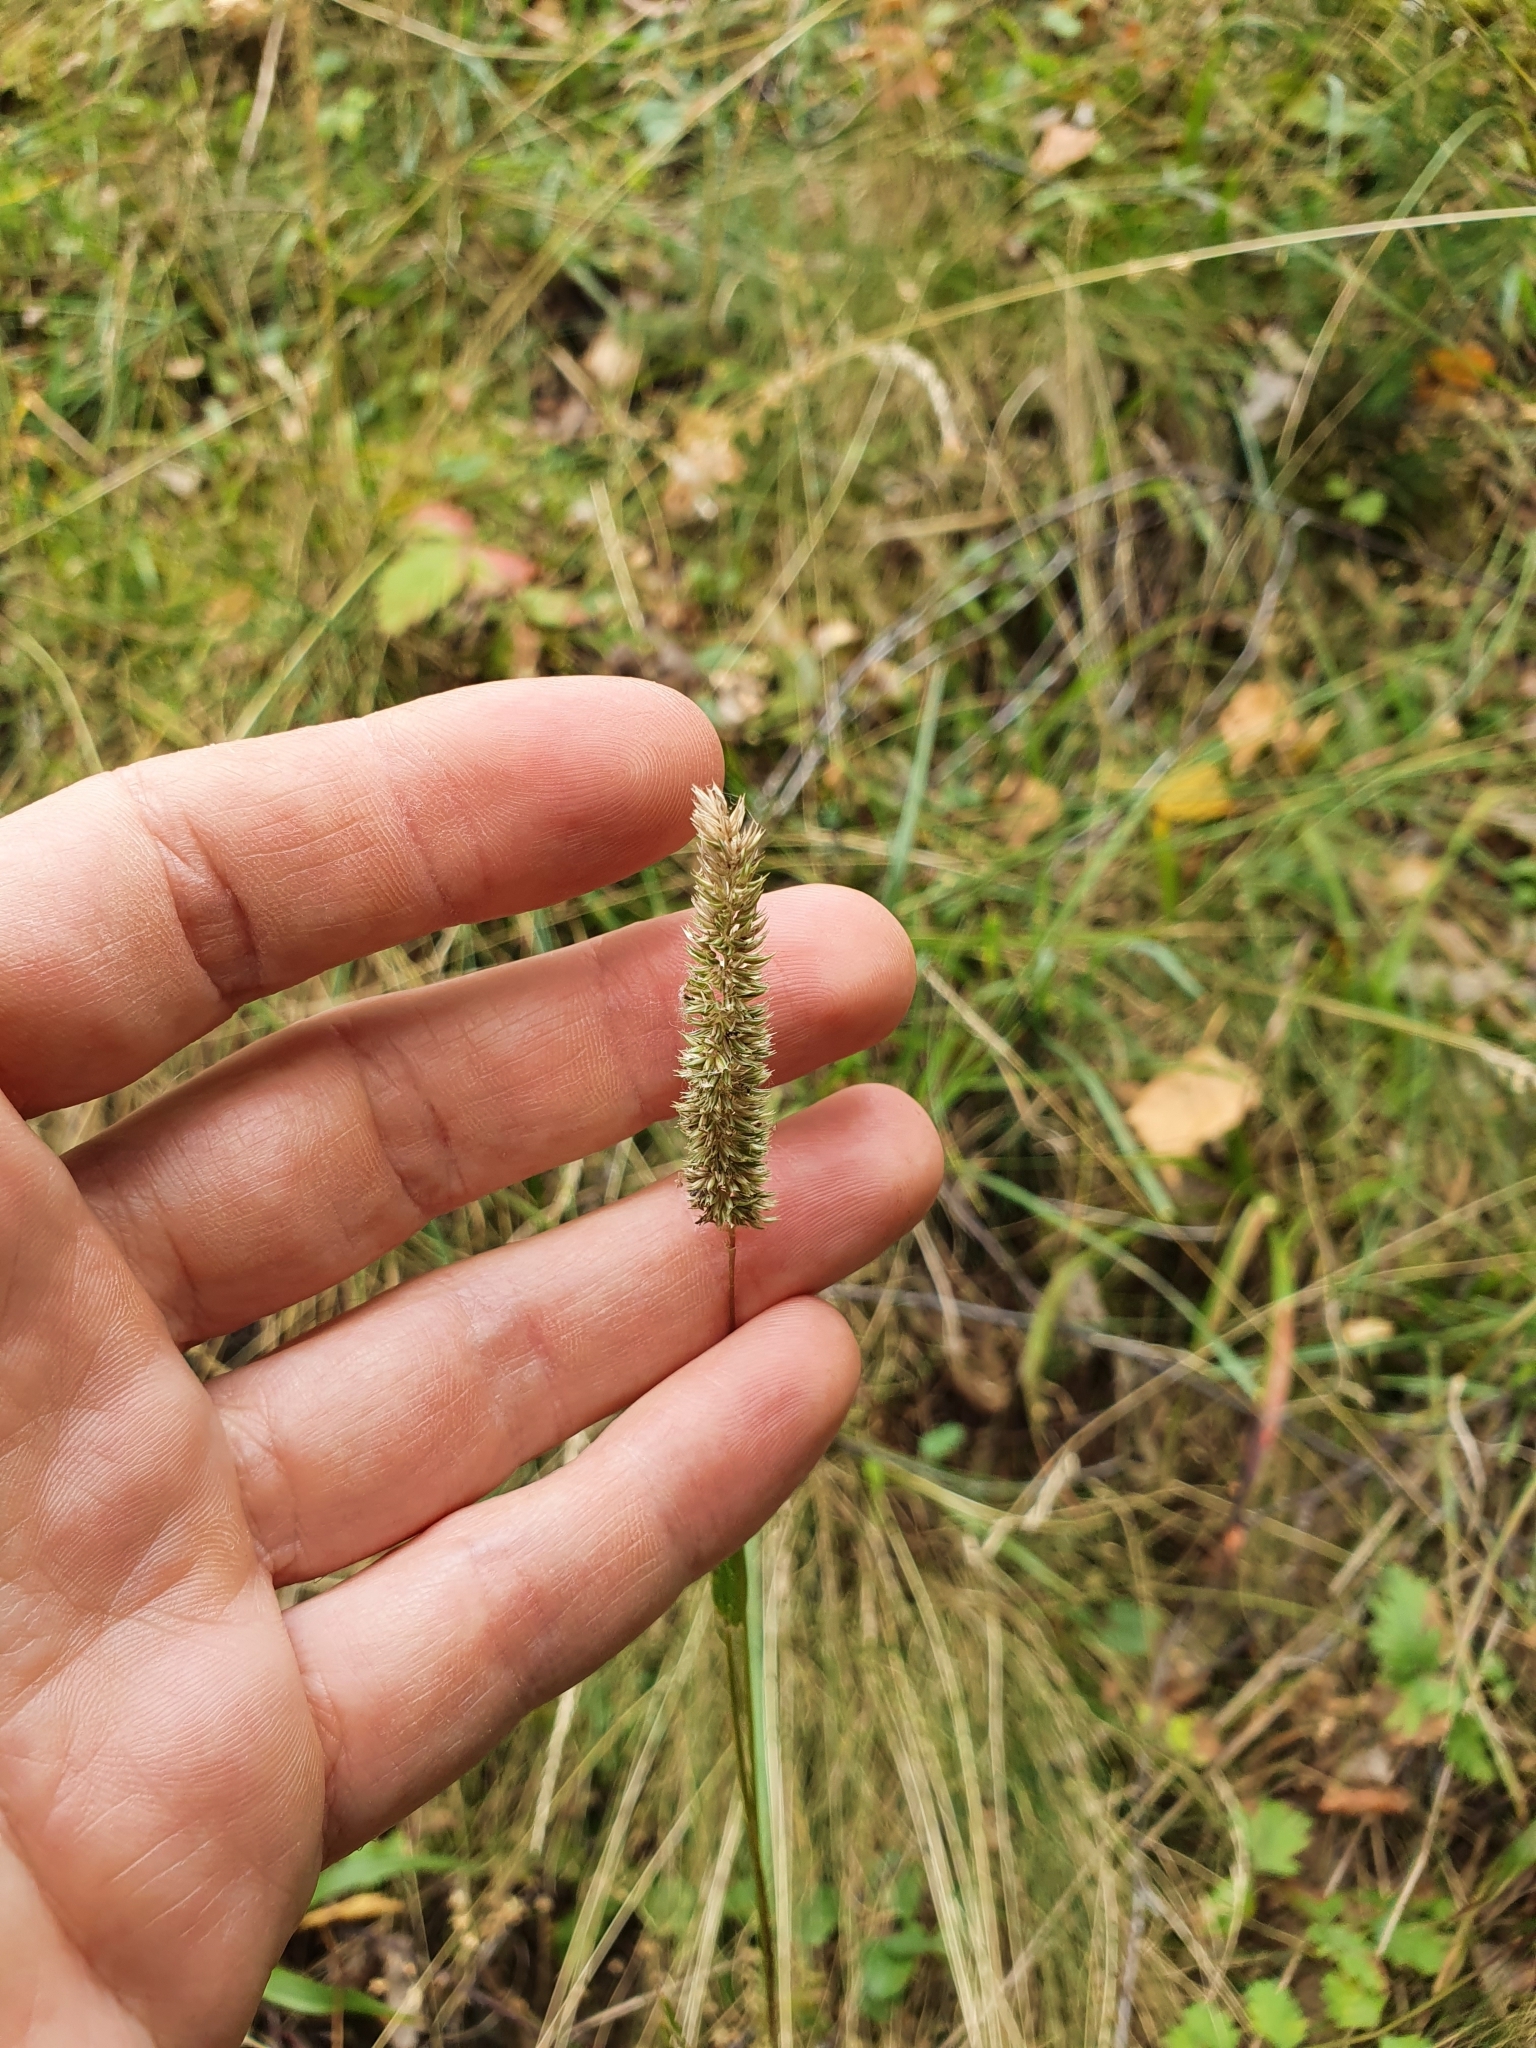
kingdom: Plantae
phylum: Tracheophyta
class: Liliopsida
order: Poales
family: Poaceae
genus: Phleum
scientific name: Phleum phleoides
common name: Purple-stem cat's-tail
